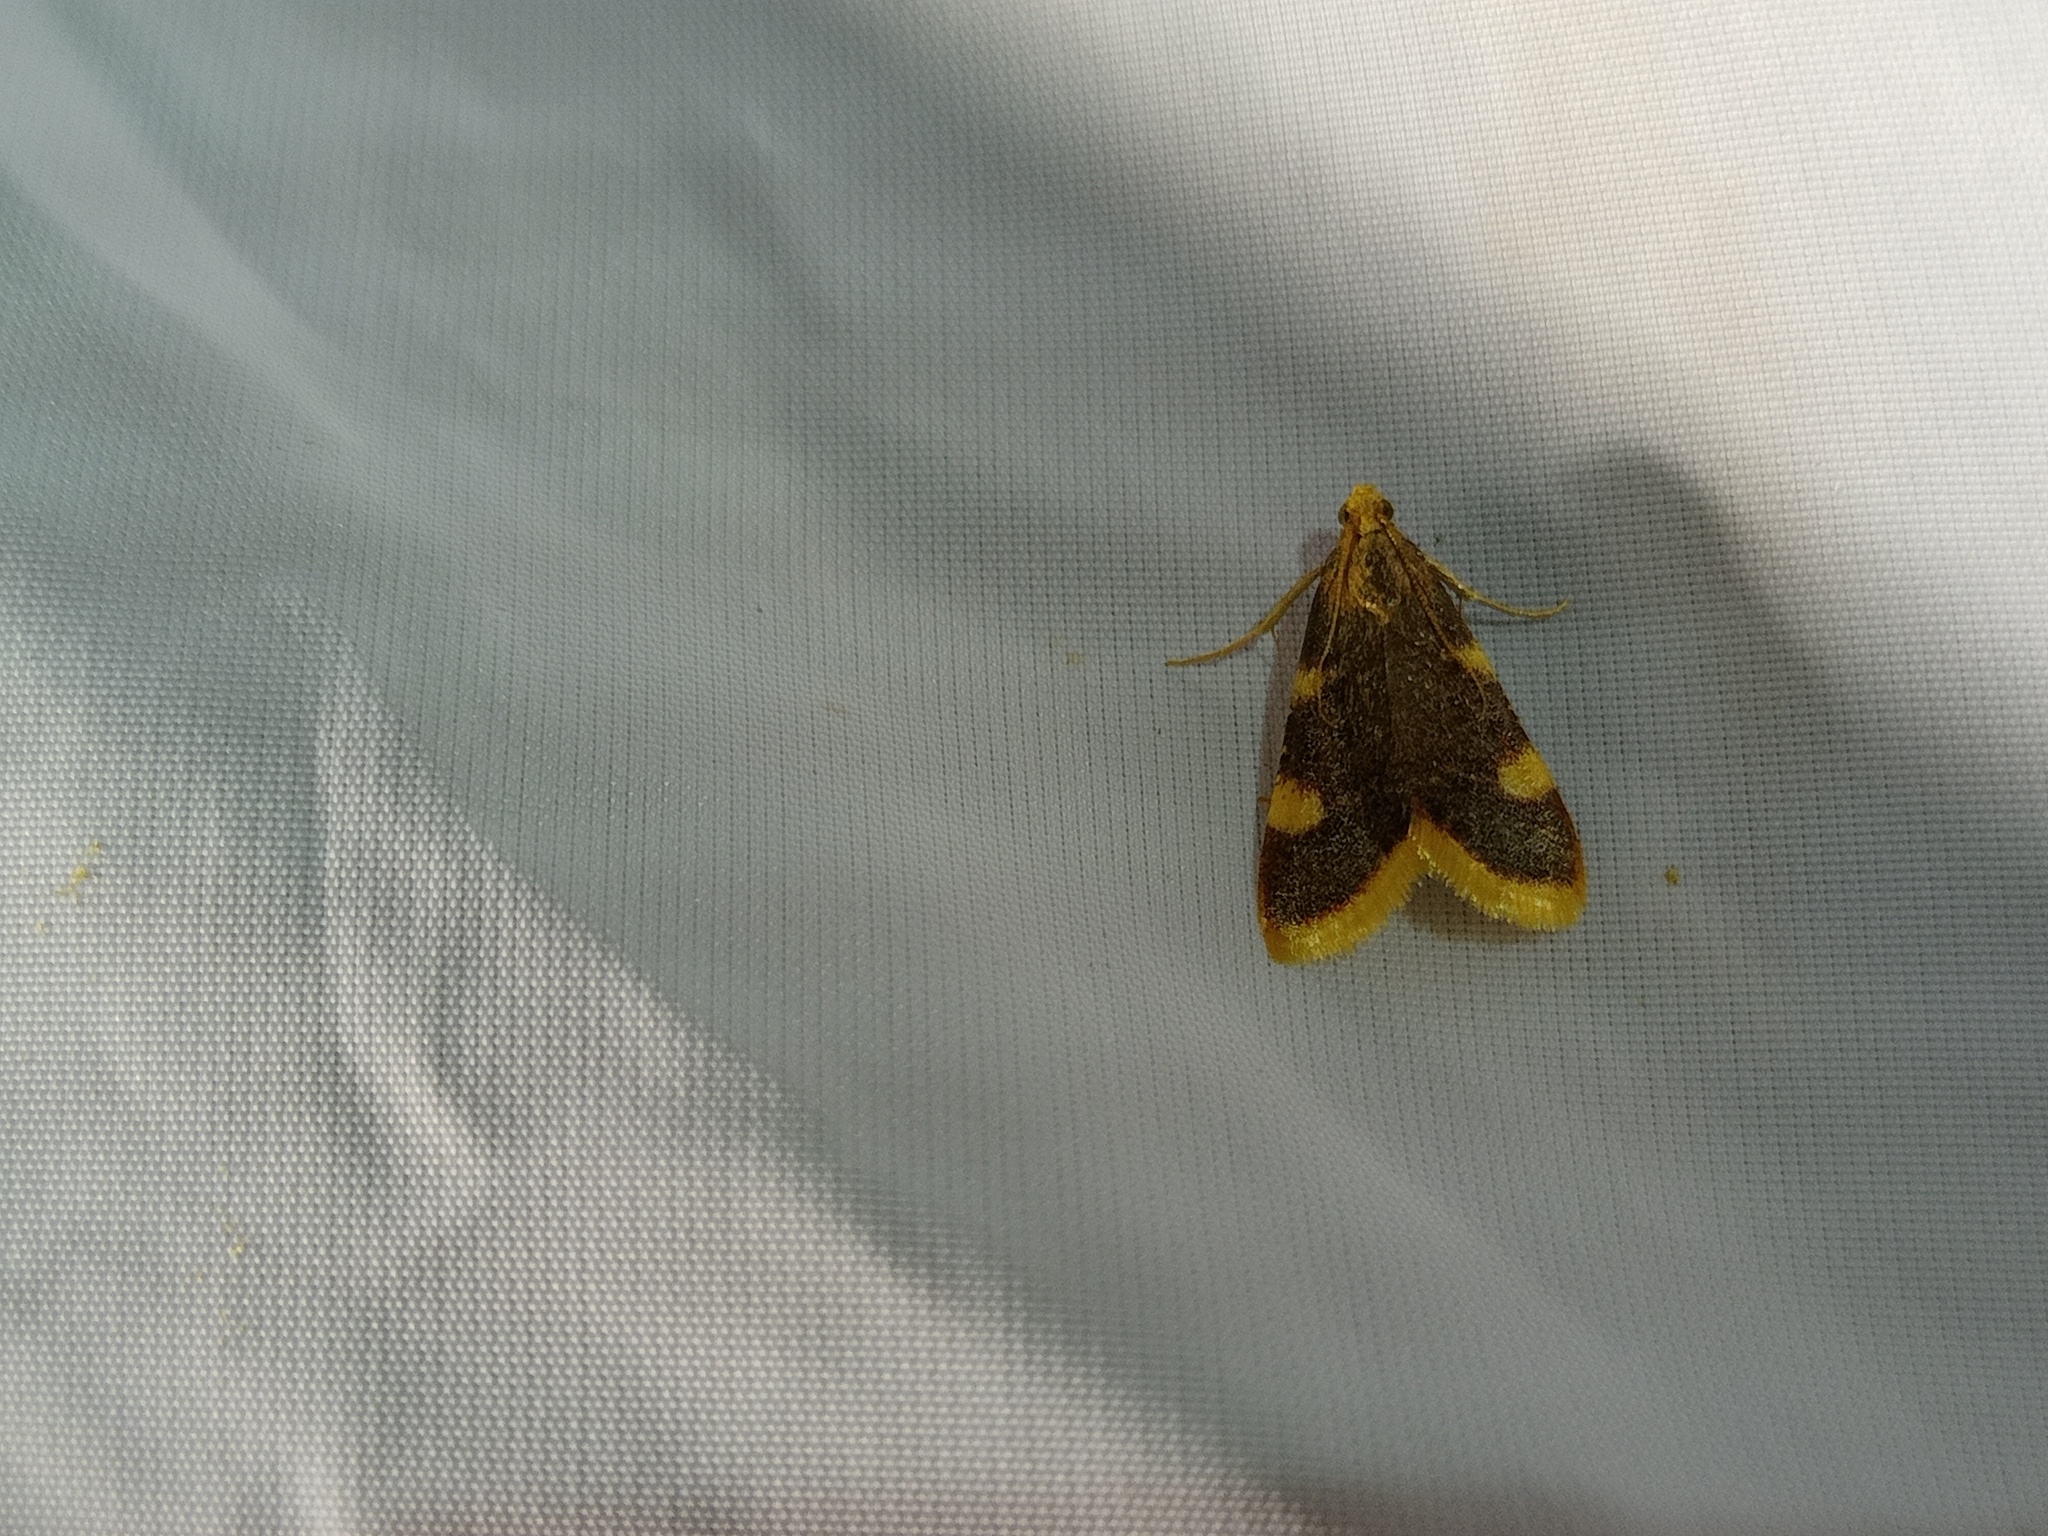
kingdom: Animalia
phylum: Arthropoda
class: Insecta
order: Lepidoptera
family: Pyralidae
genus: Hypsopygia
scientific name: Hypsopygia costalis
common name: Gold triangle
